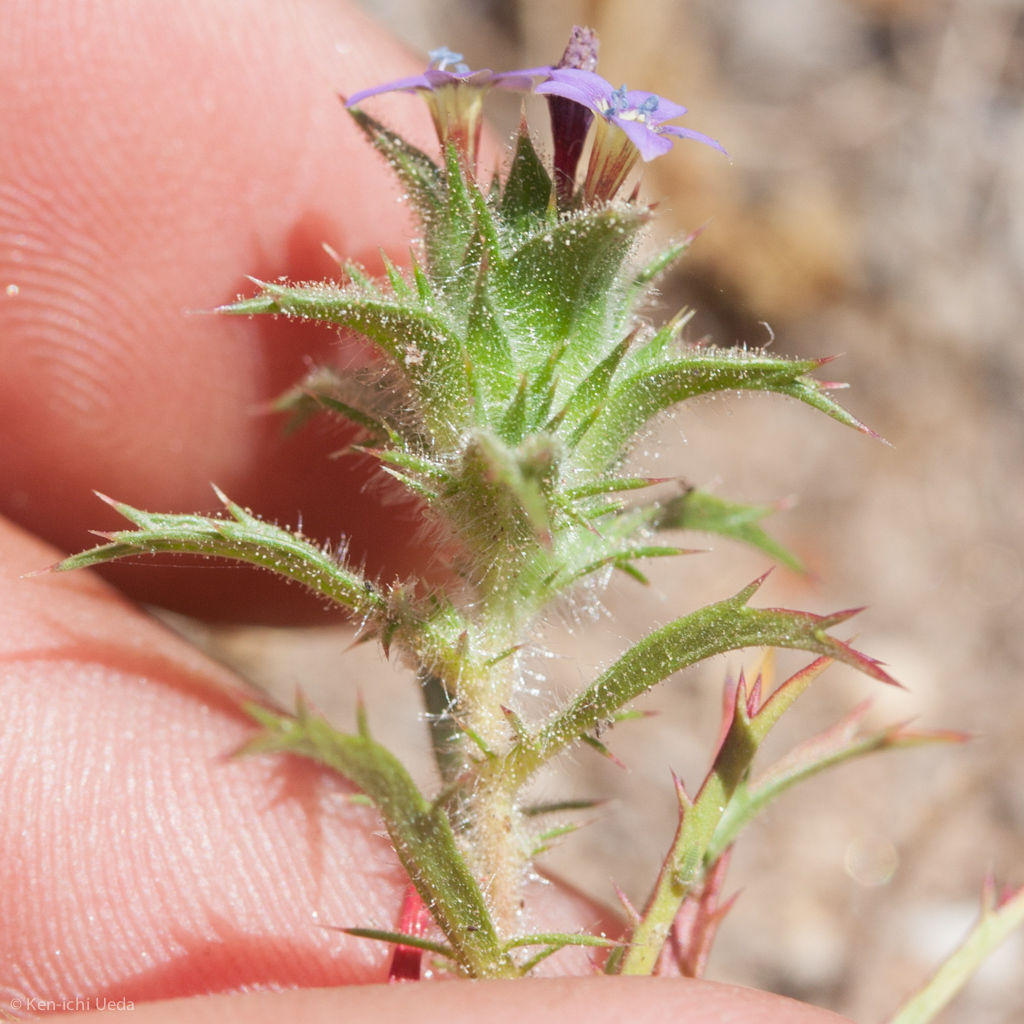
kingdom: Plantae
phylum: Tracheophyta
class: Magnoliopsida
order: Ericales
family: Polemoniaceae
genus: Navarretia
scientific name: Navarretia atractyloides
